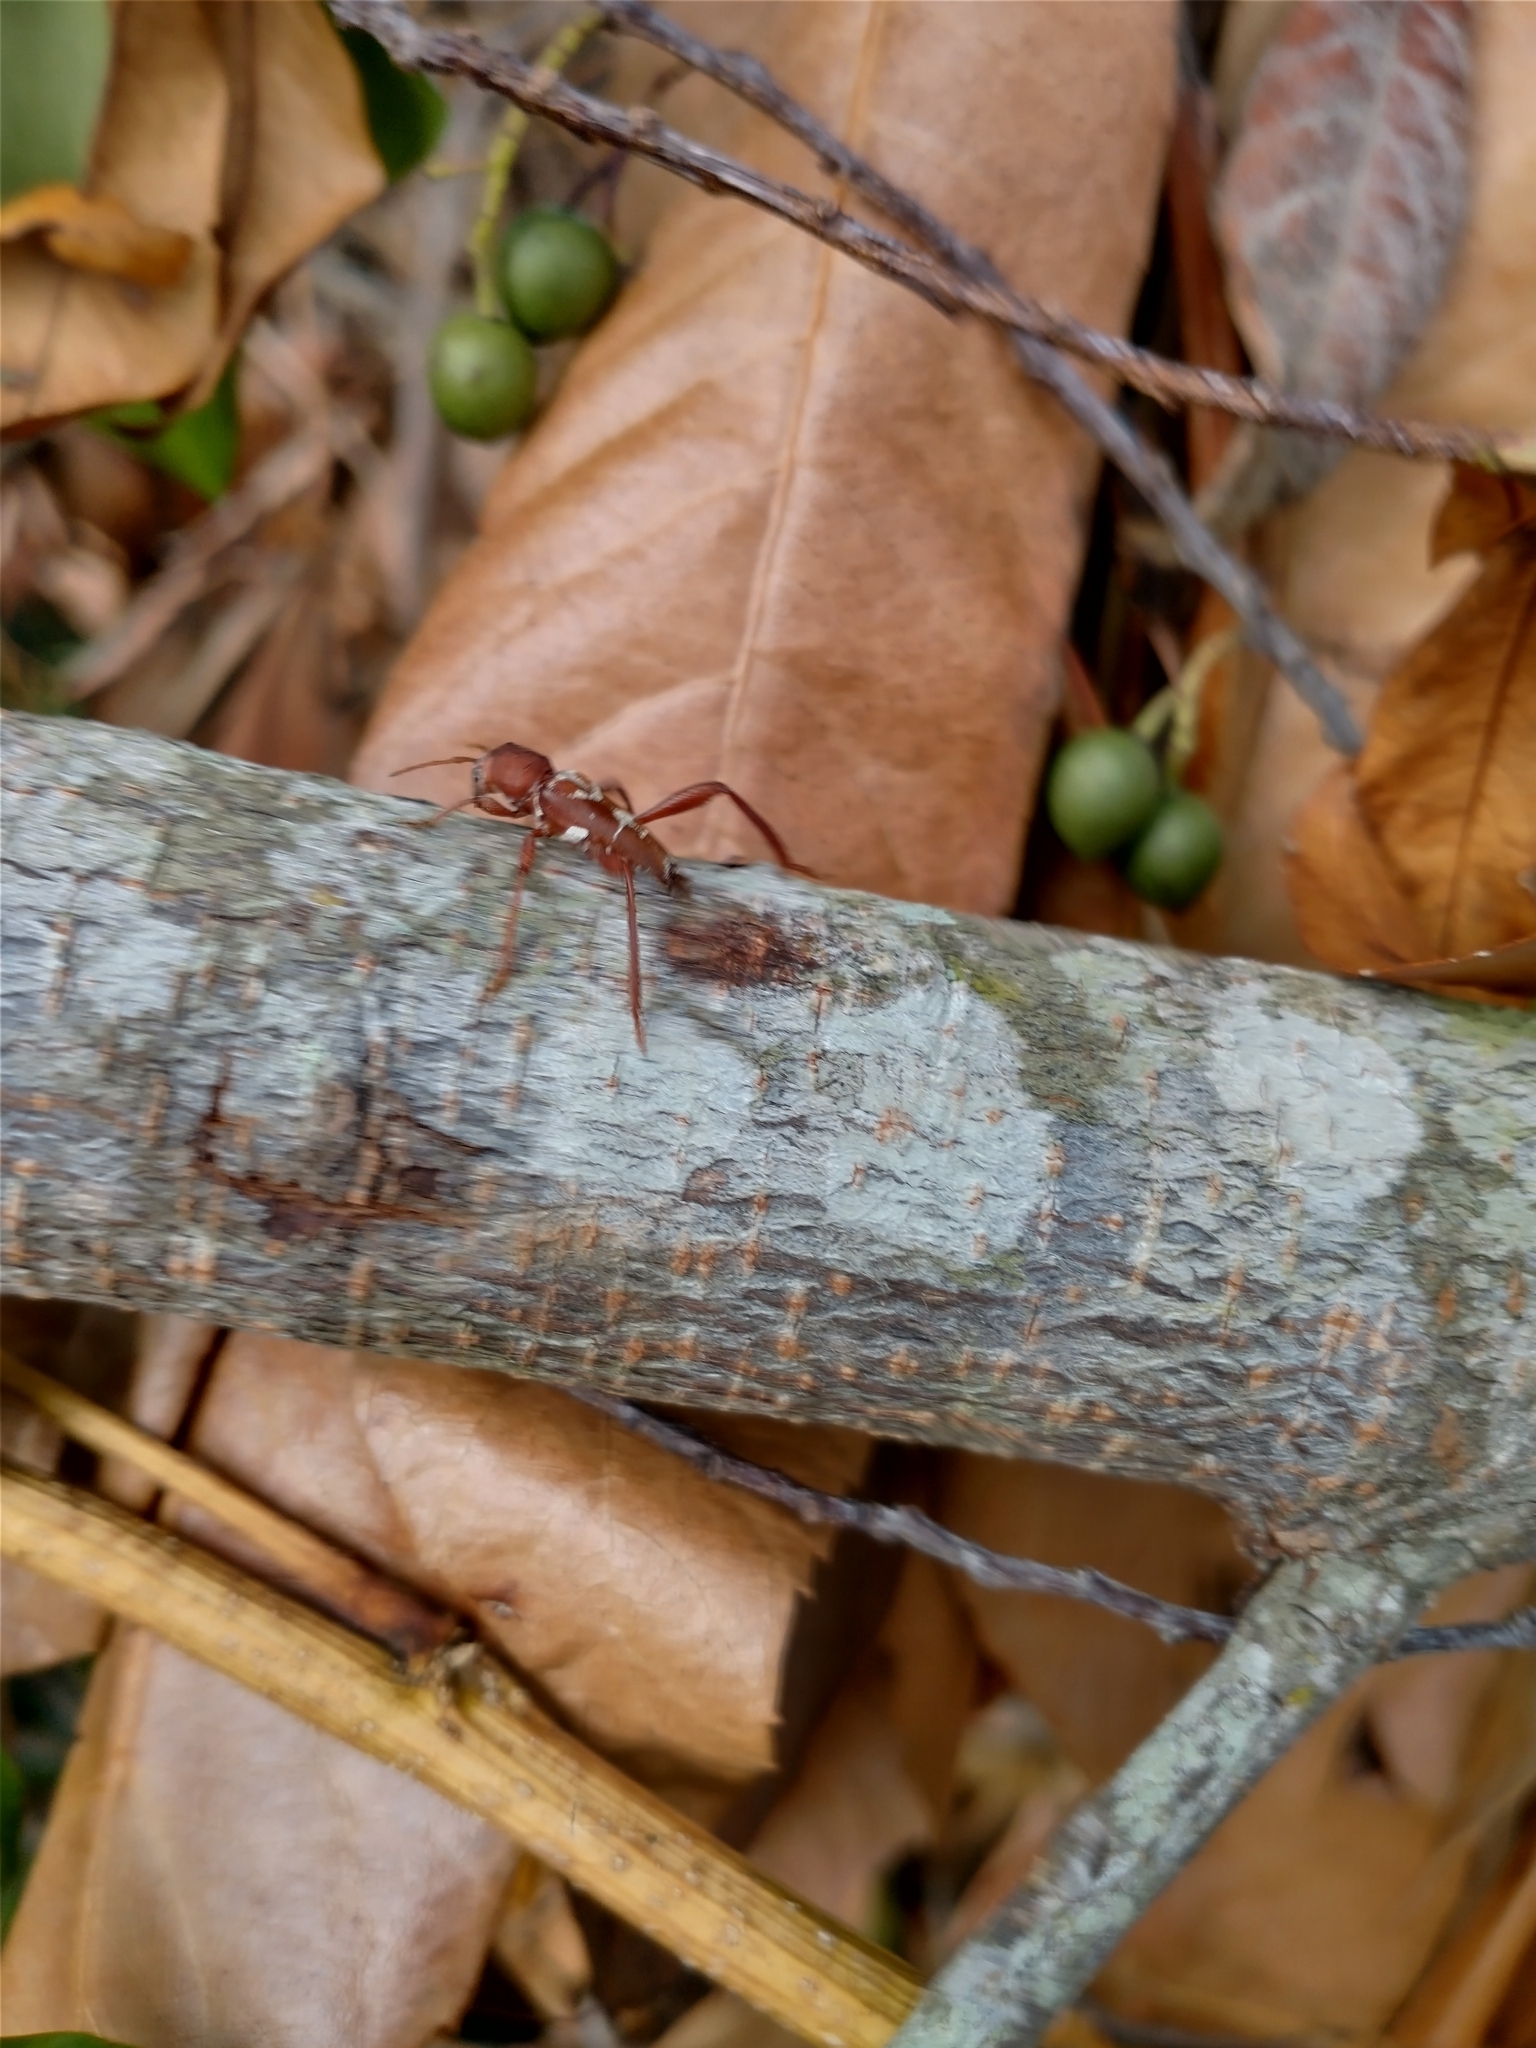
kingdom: Animalia
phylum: Arthropoda
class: Insecta
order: Coleoptera
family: Cerambycidae
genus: Neoclytus
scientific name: Neoclytus senilis
